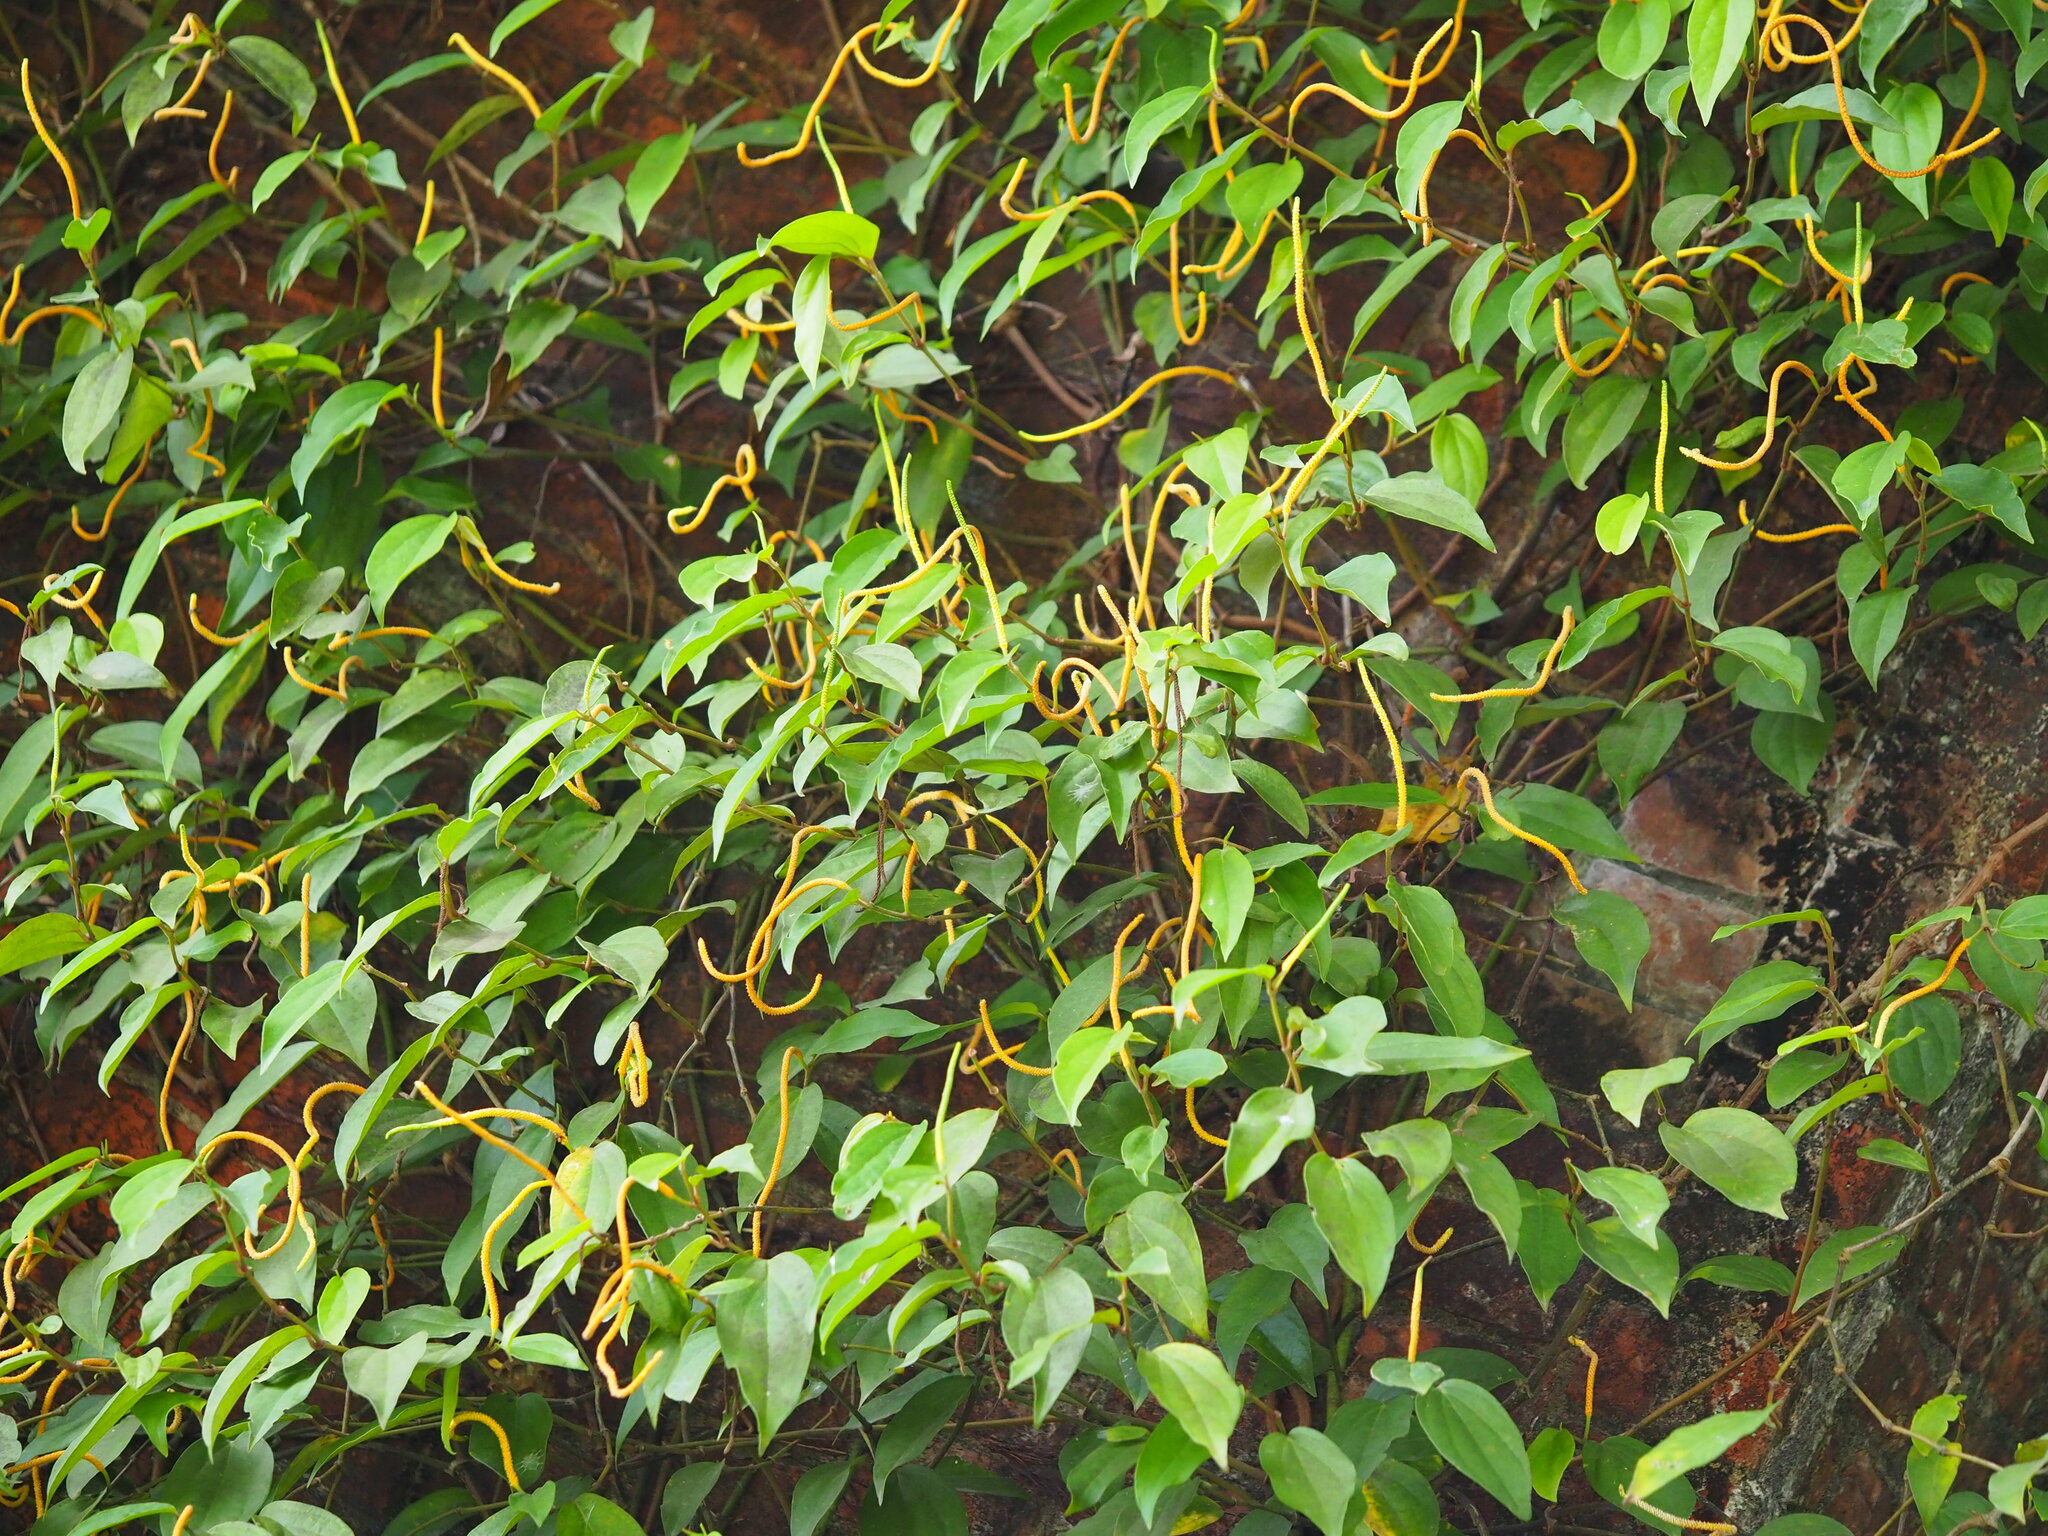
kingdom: Plantae
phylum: Tracheophyta
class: Magnoliopsida
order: Piperales
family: Piperaceae
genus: Piper
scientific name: Piper kadsura
